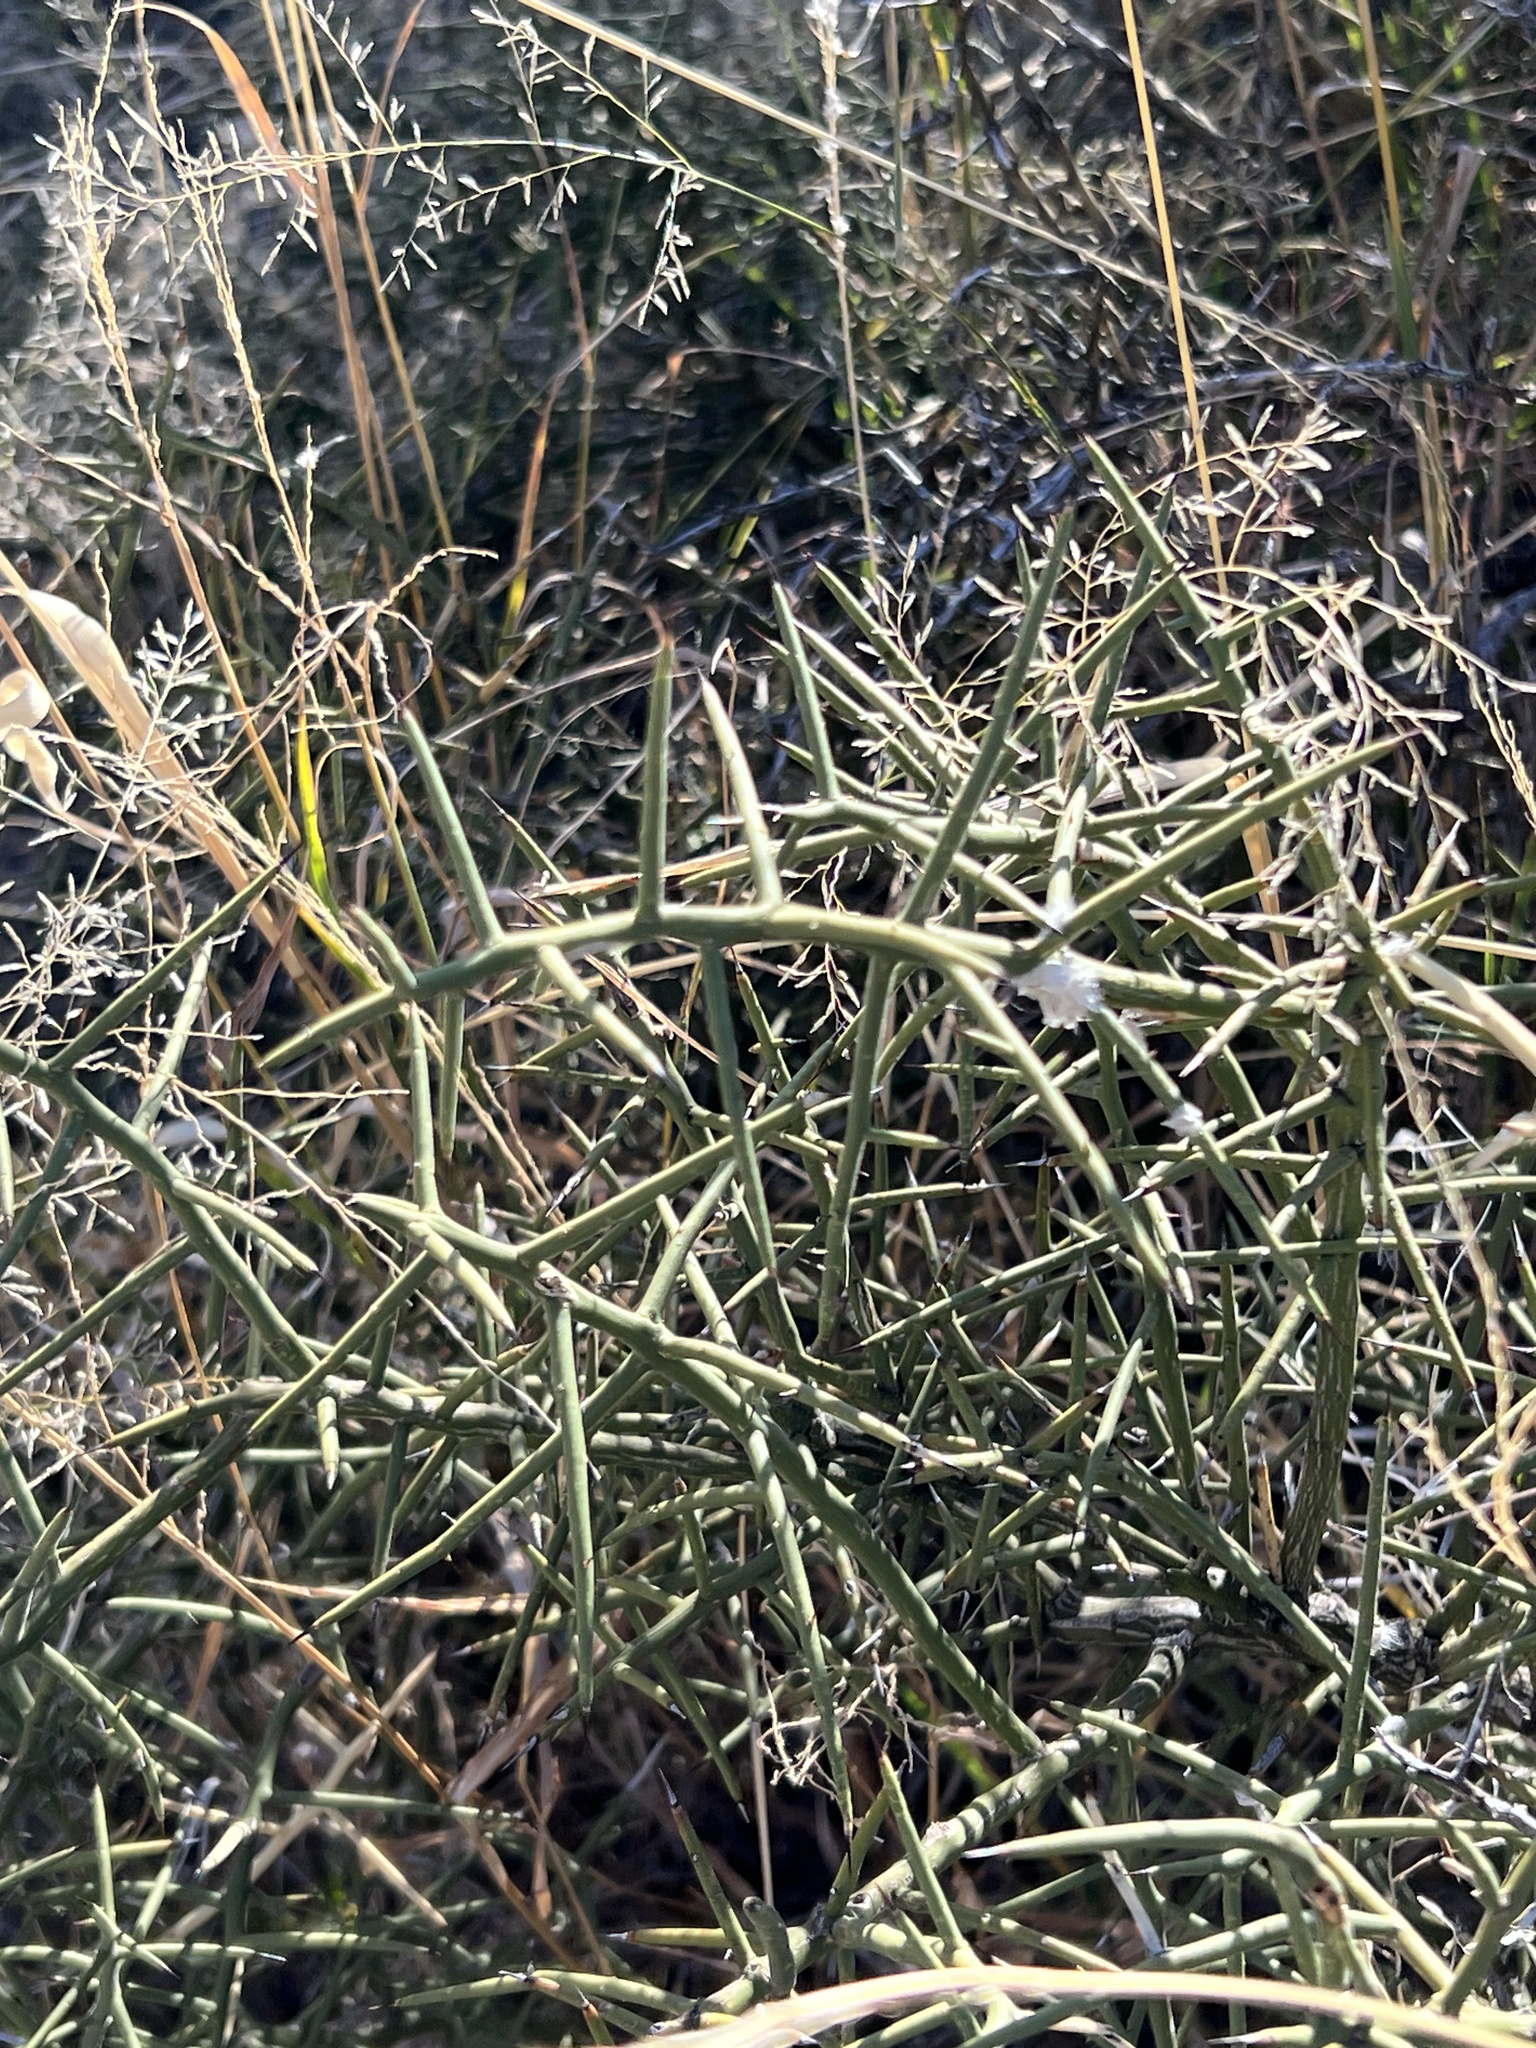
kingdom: Plantae
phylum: Tracheophyta
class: Magnoliopsida
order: Brassicales
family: Koeberliniaceae
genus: Koeberlinia
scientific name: Koeberlinia spinosa
